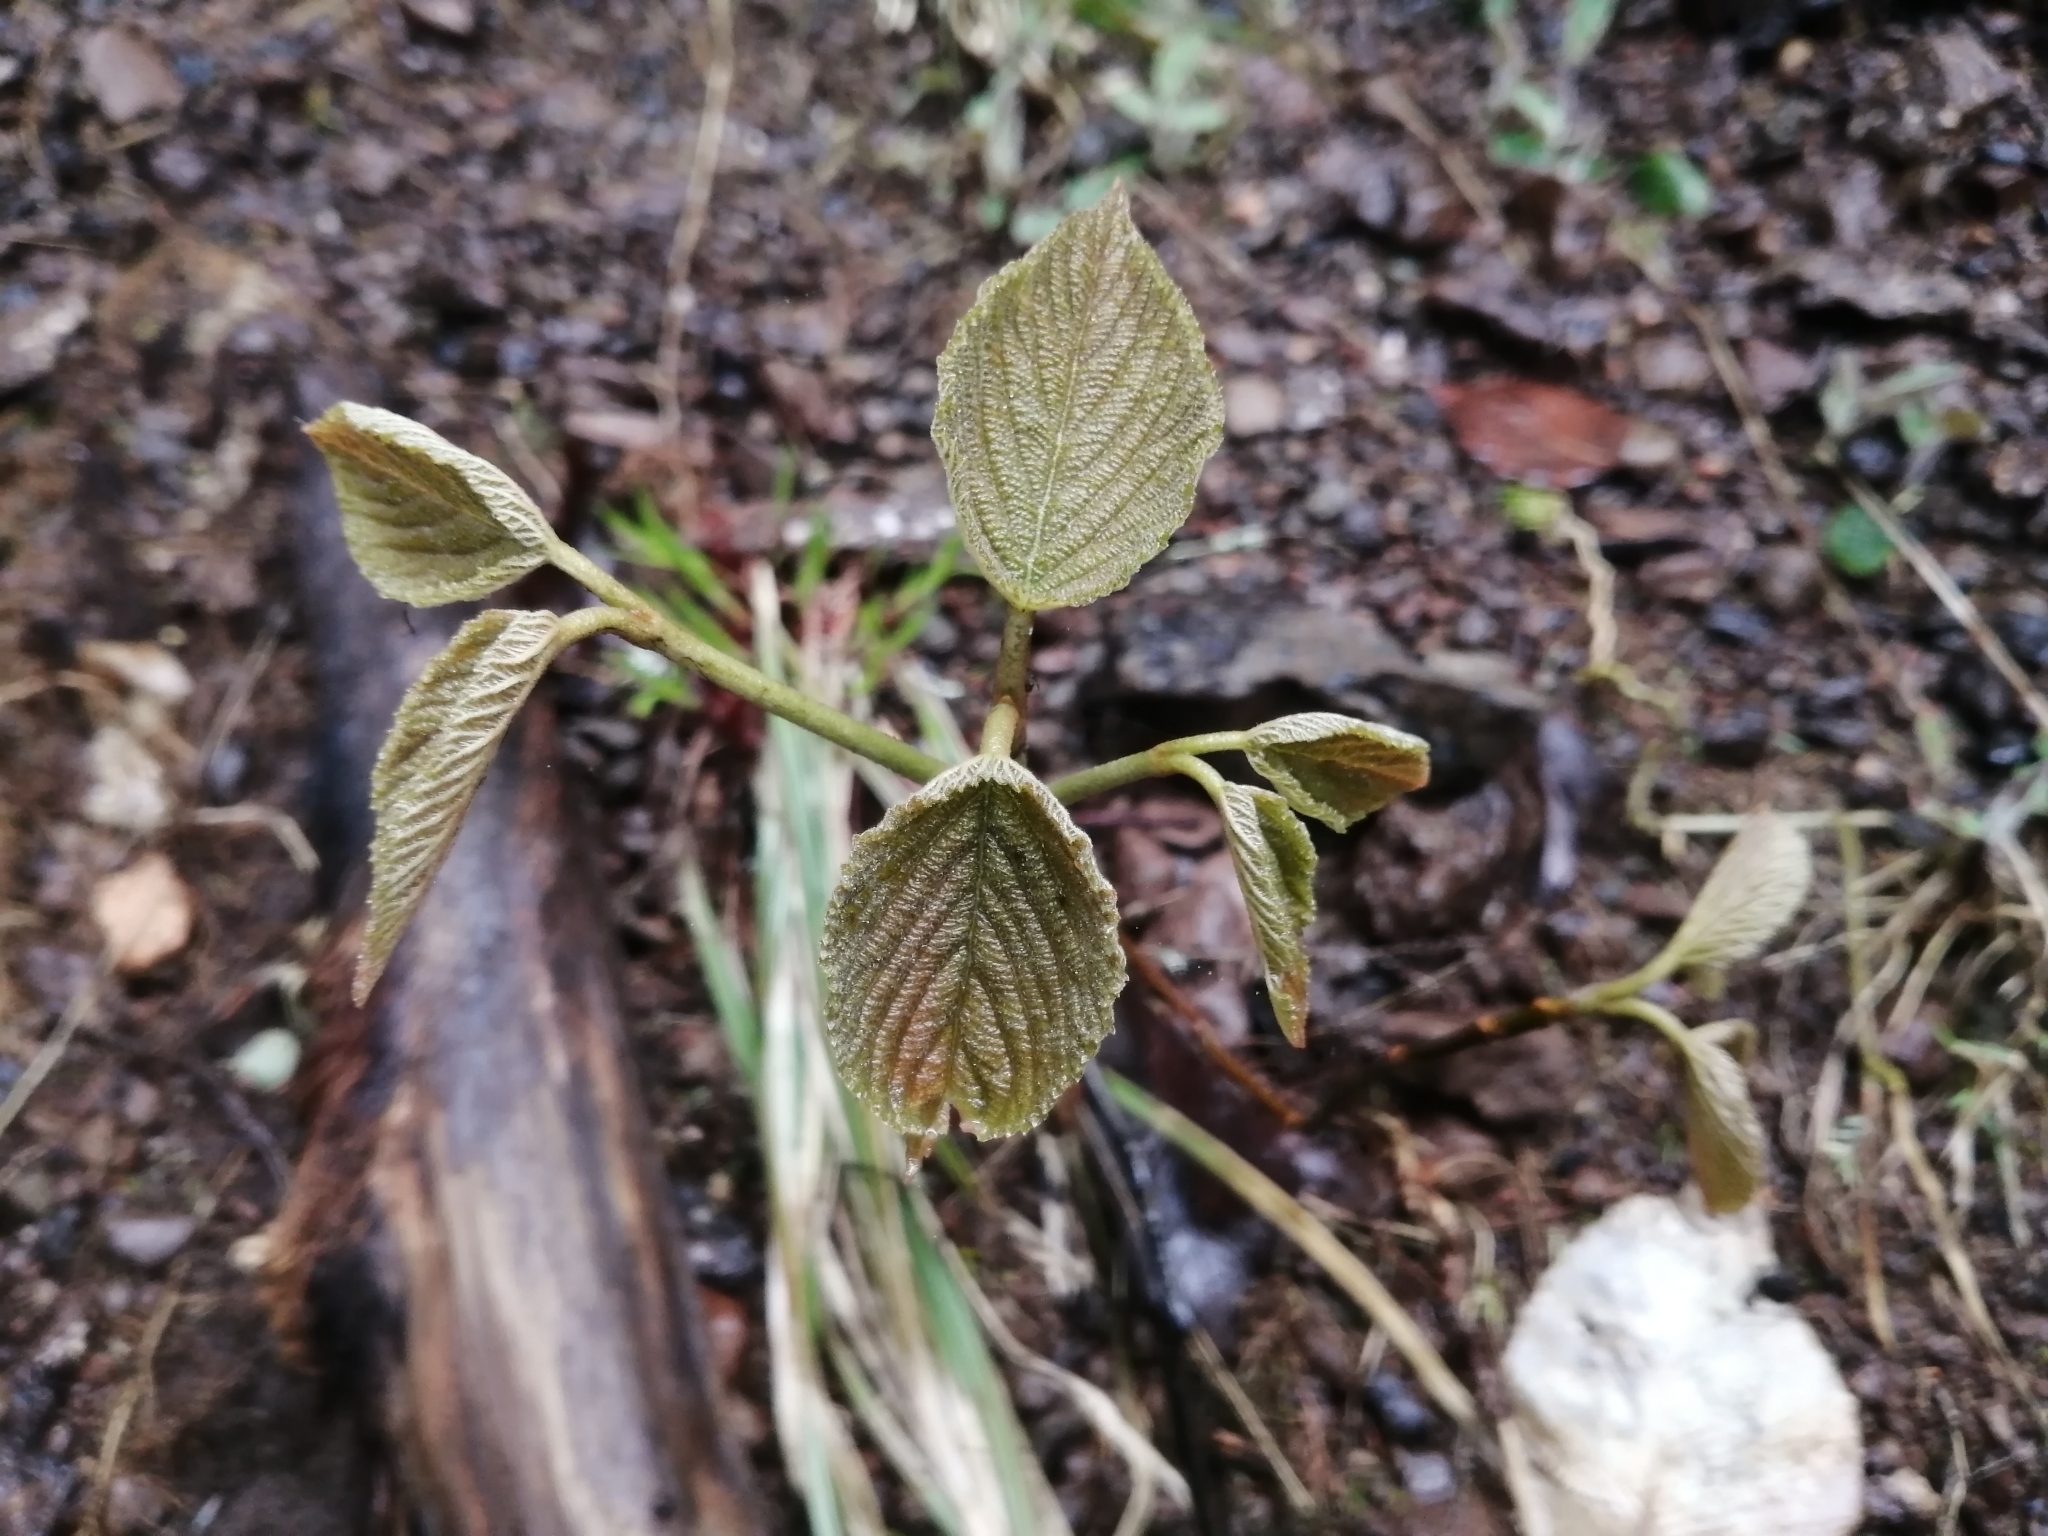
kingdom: Plantae
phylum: Tracheophyta
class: Magnoliopsida
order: Dipsacales
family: Viburnaceae
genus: Viburnum
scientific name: Viburnum lantanoides
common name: Hobblebush
